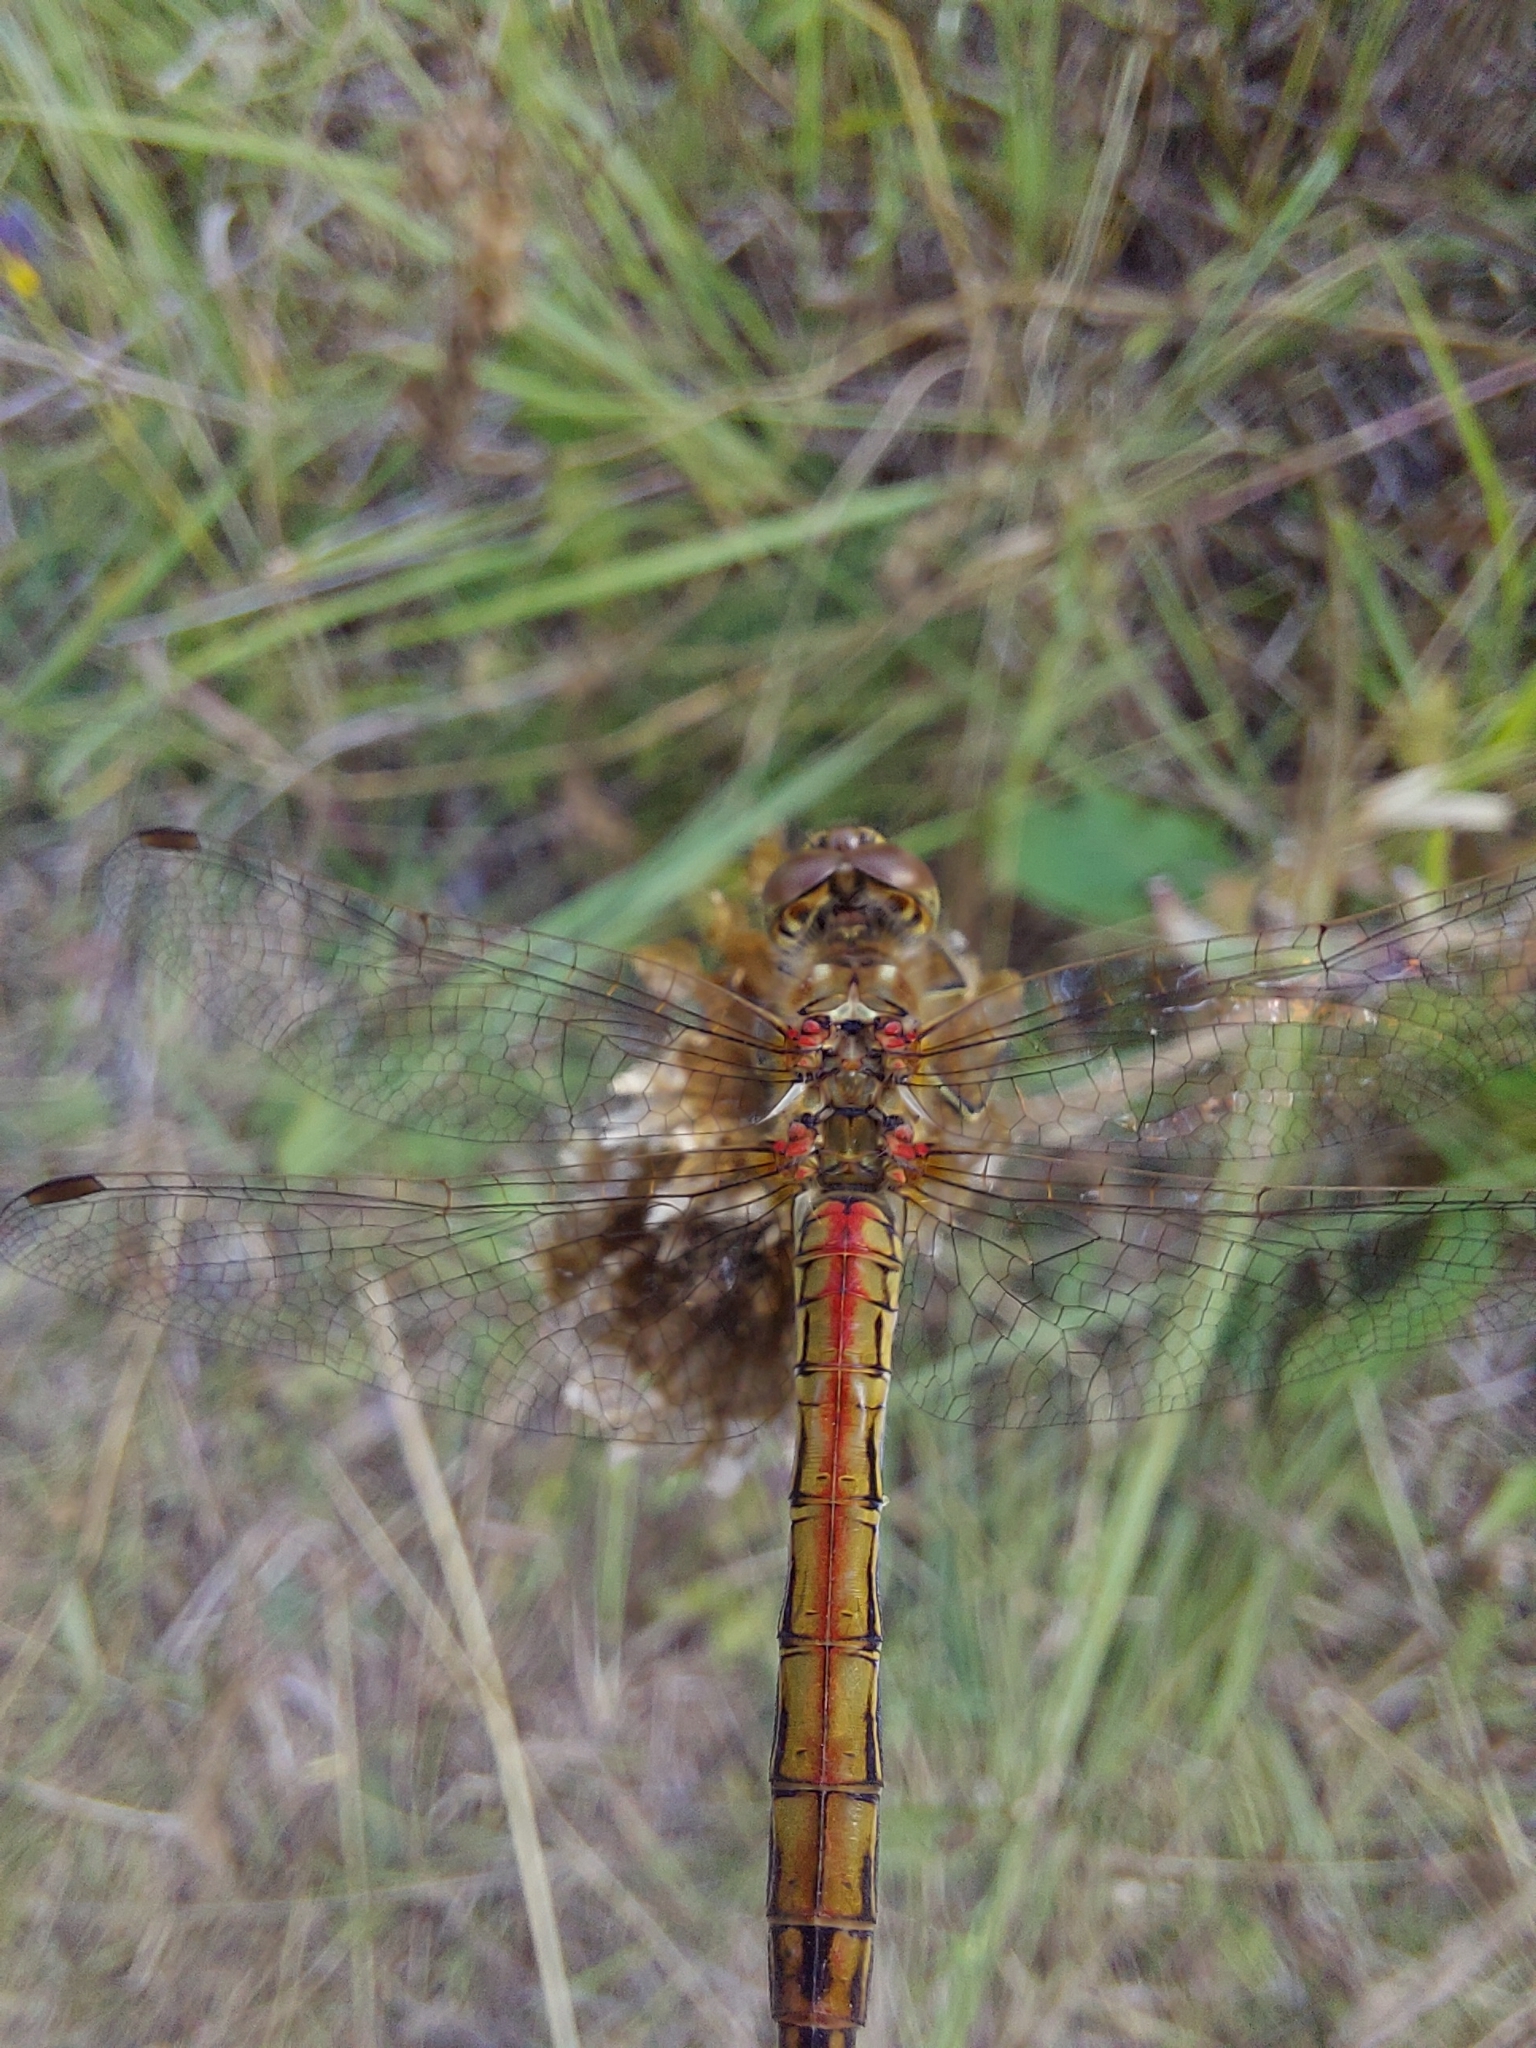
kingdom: Animalia
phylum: Arthropoda
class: Insecta
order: Odonata
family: Libellulidae
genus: Sympetrum
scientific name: Sympetrum vulgatum
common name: Vagrant darter
